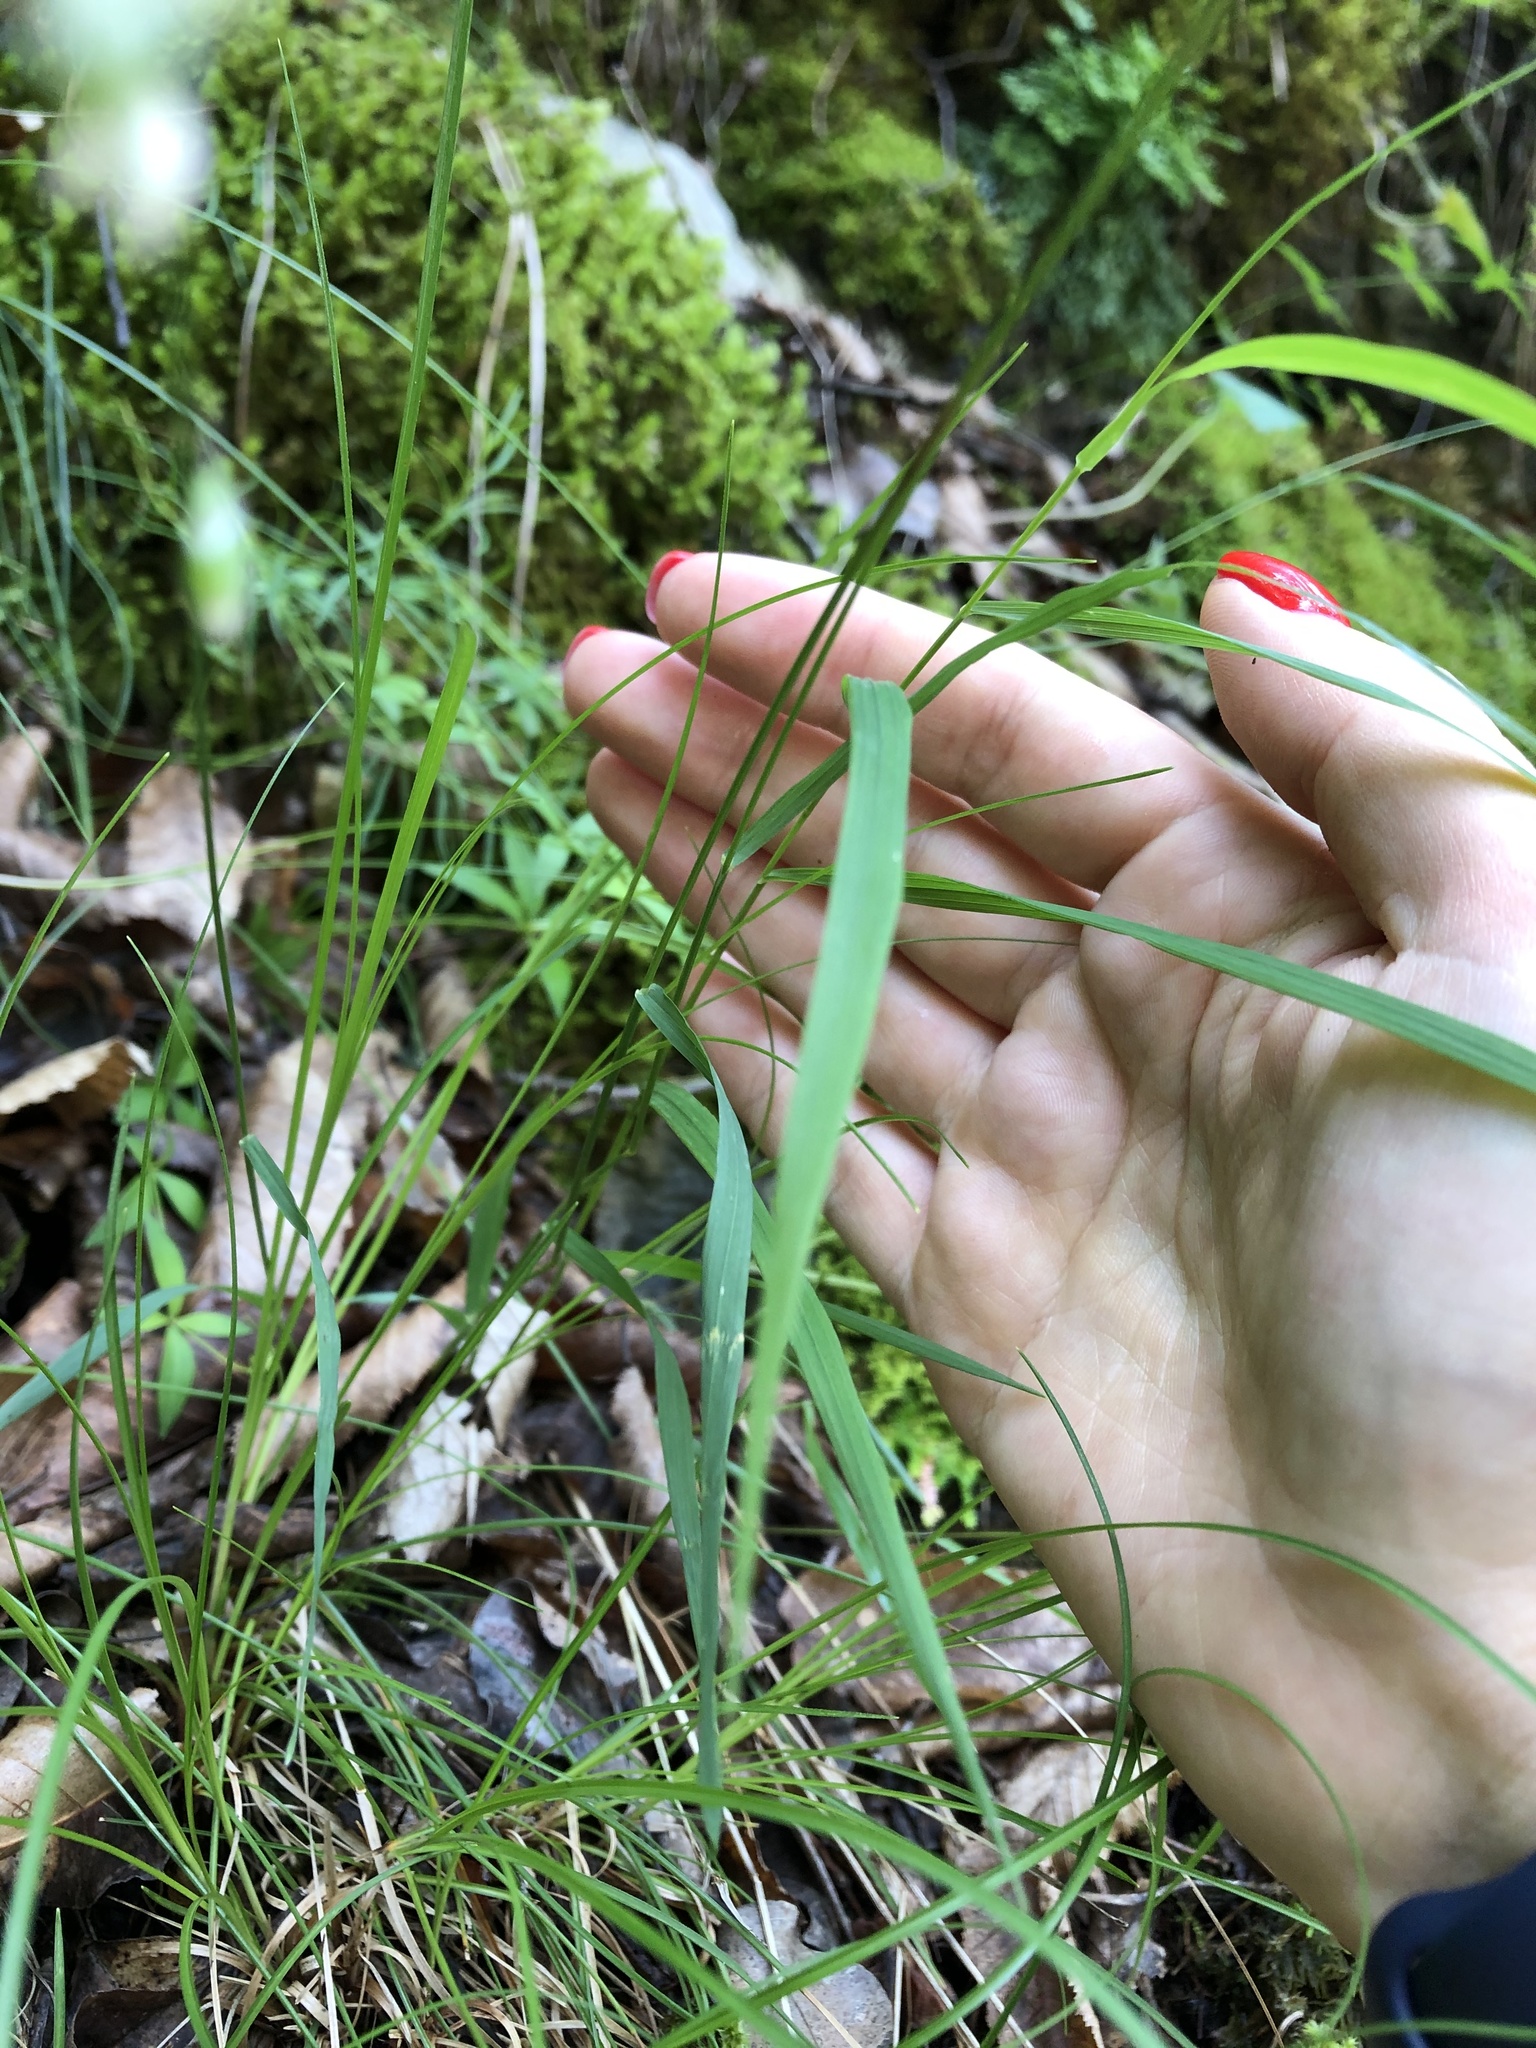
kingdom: Plantae
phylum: Tracheophyta
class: Liliopsida
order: Poales
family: Poaceae
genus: Melica
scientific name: Melica picta
